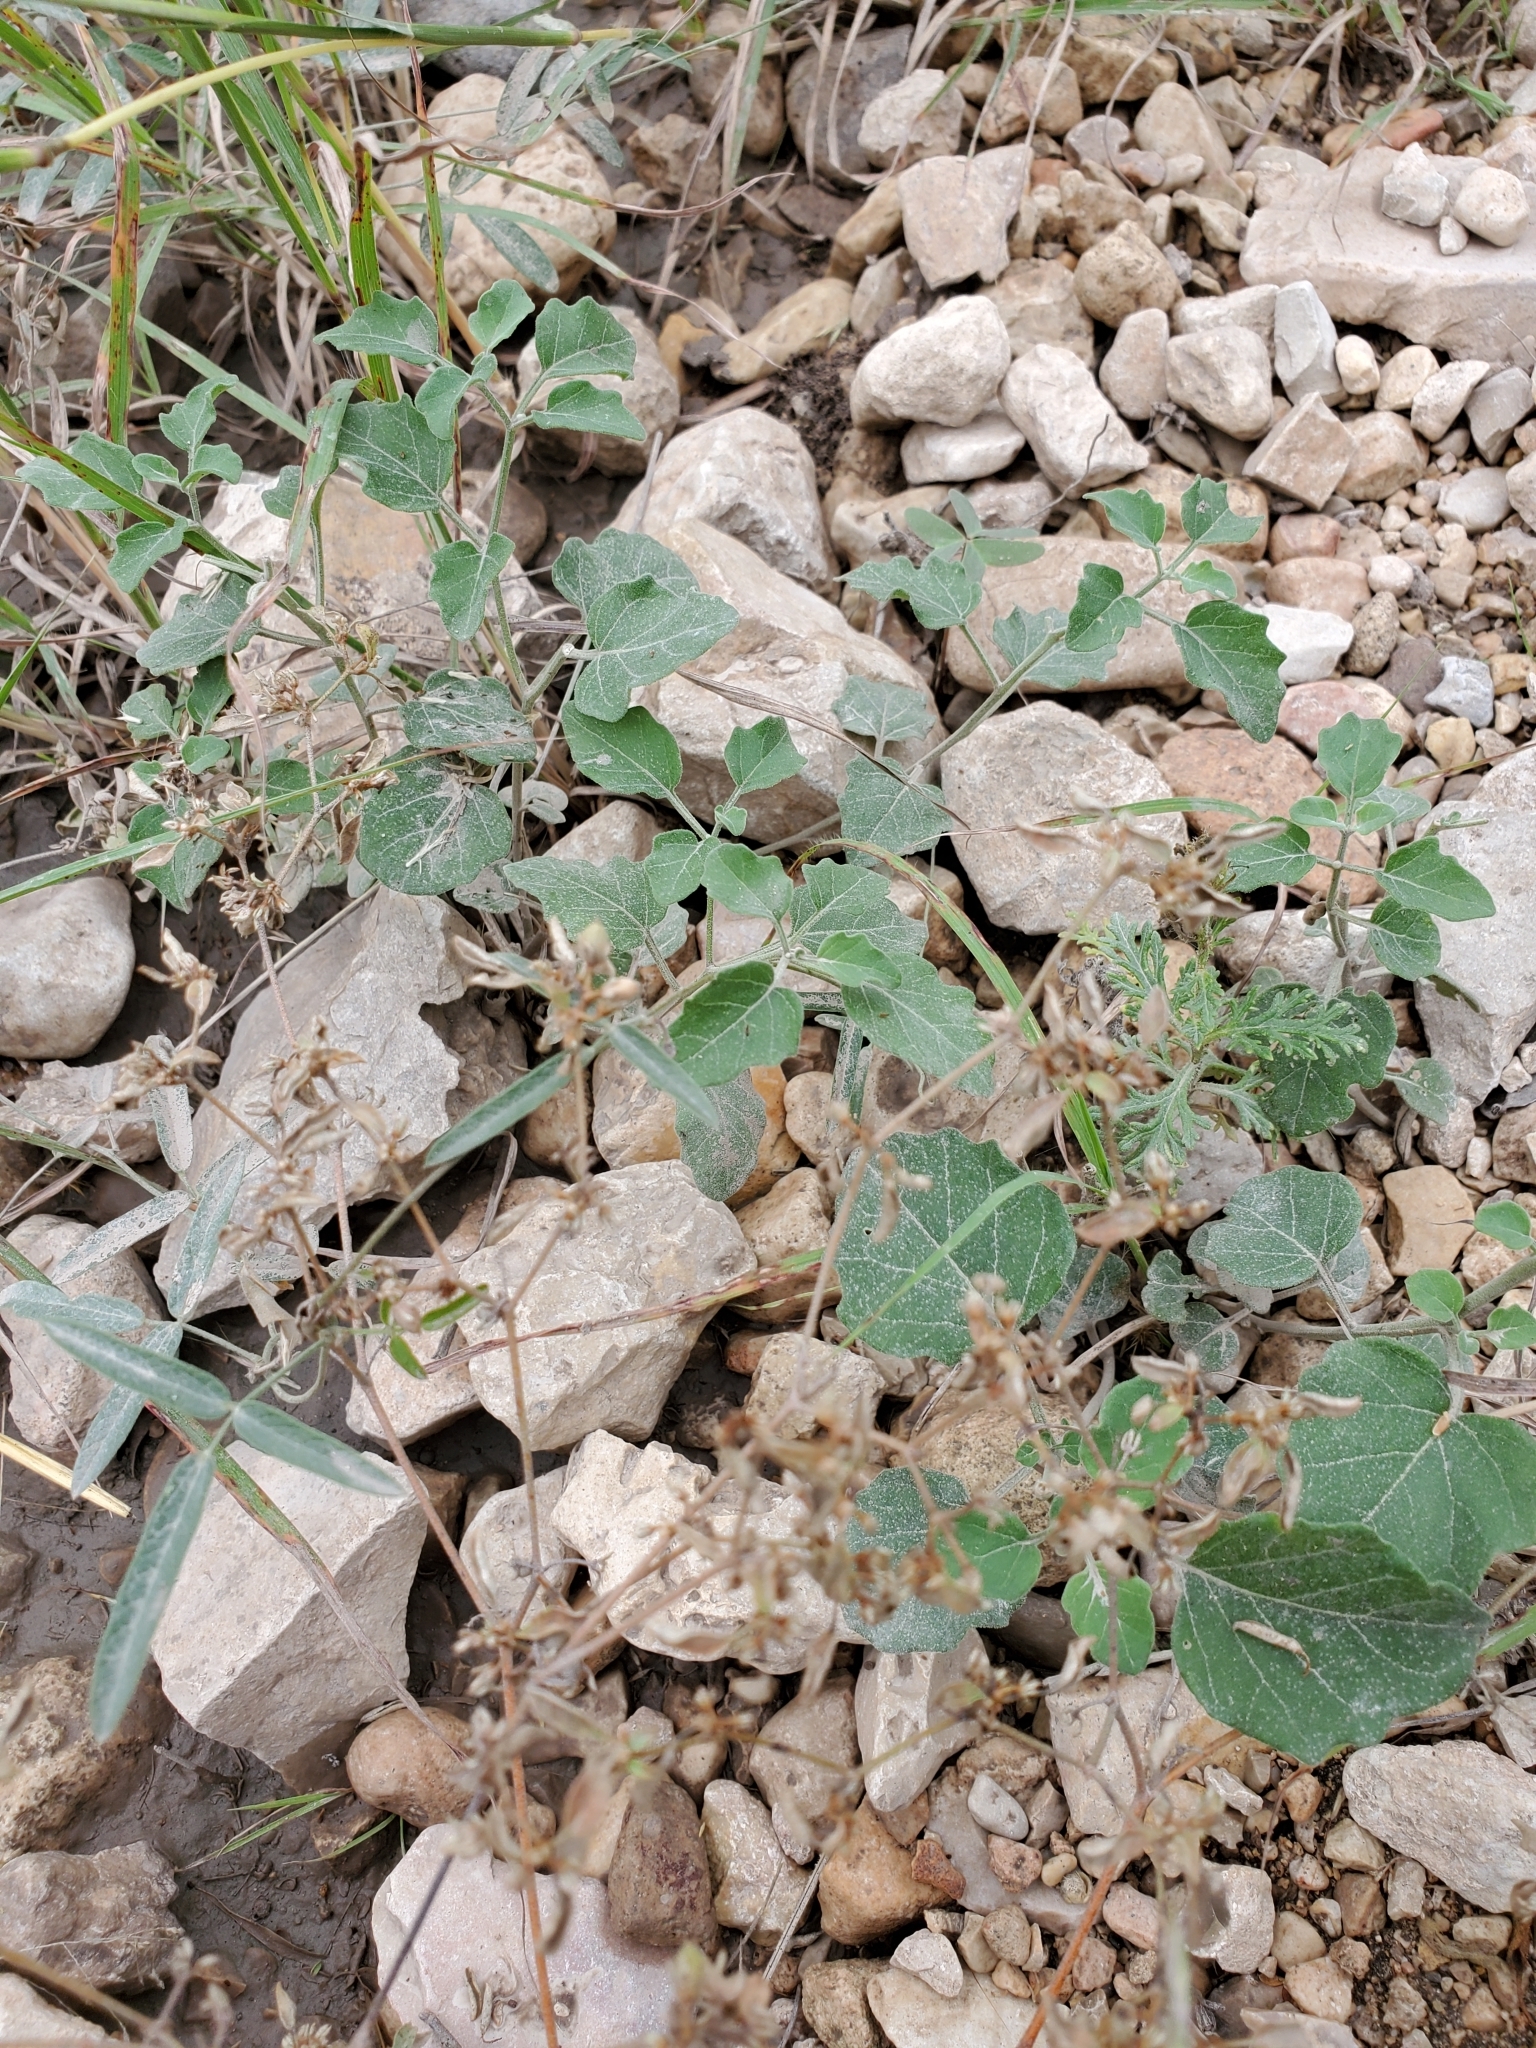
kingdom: Plantae
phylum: Tracheophyta
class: Magnoliopsida
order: Solanales
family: Solanaceae
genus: Physalis
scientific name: Physalis cinerascens
